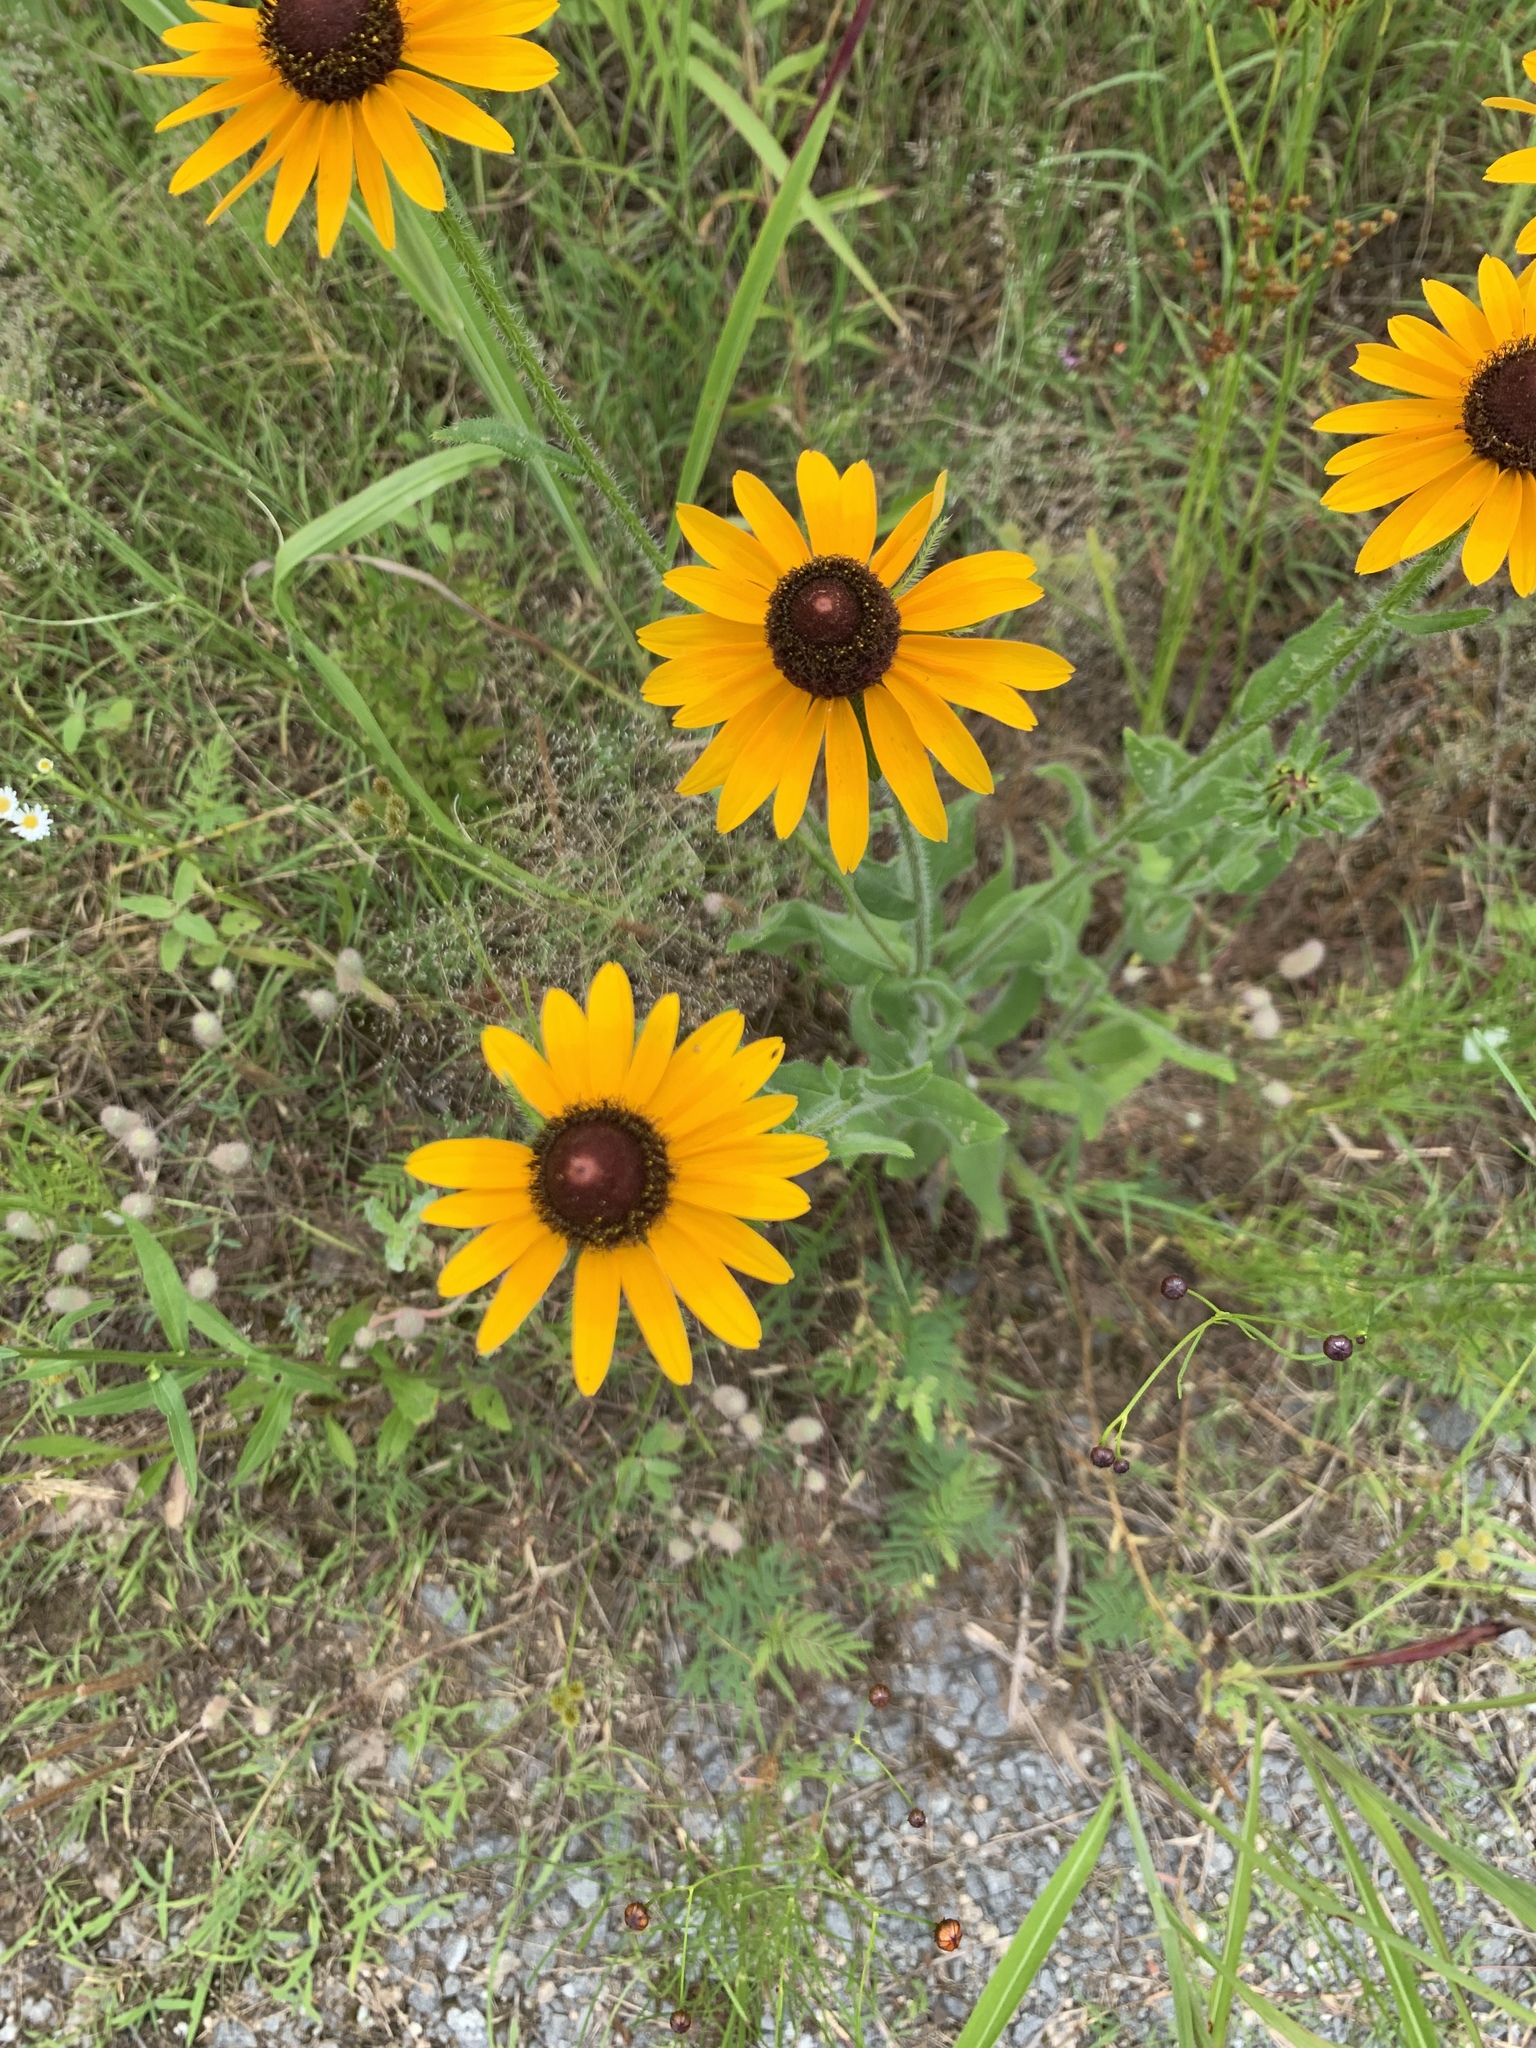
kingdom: Plantae
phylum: Tracheophyta
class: Magnoliopsida
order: Asterales
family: Asteraceae
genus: Rudbeckia
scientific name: Rudbeckia hirta
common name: Black-eyed-susan
